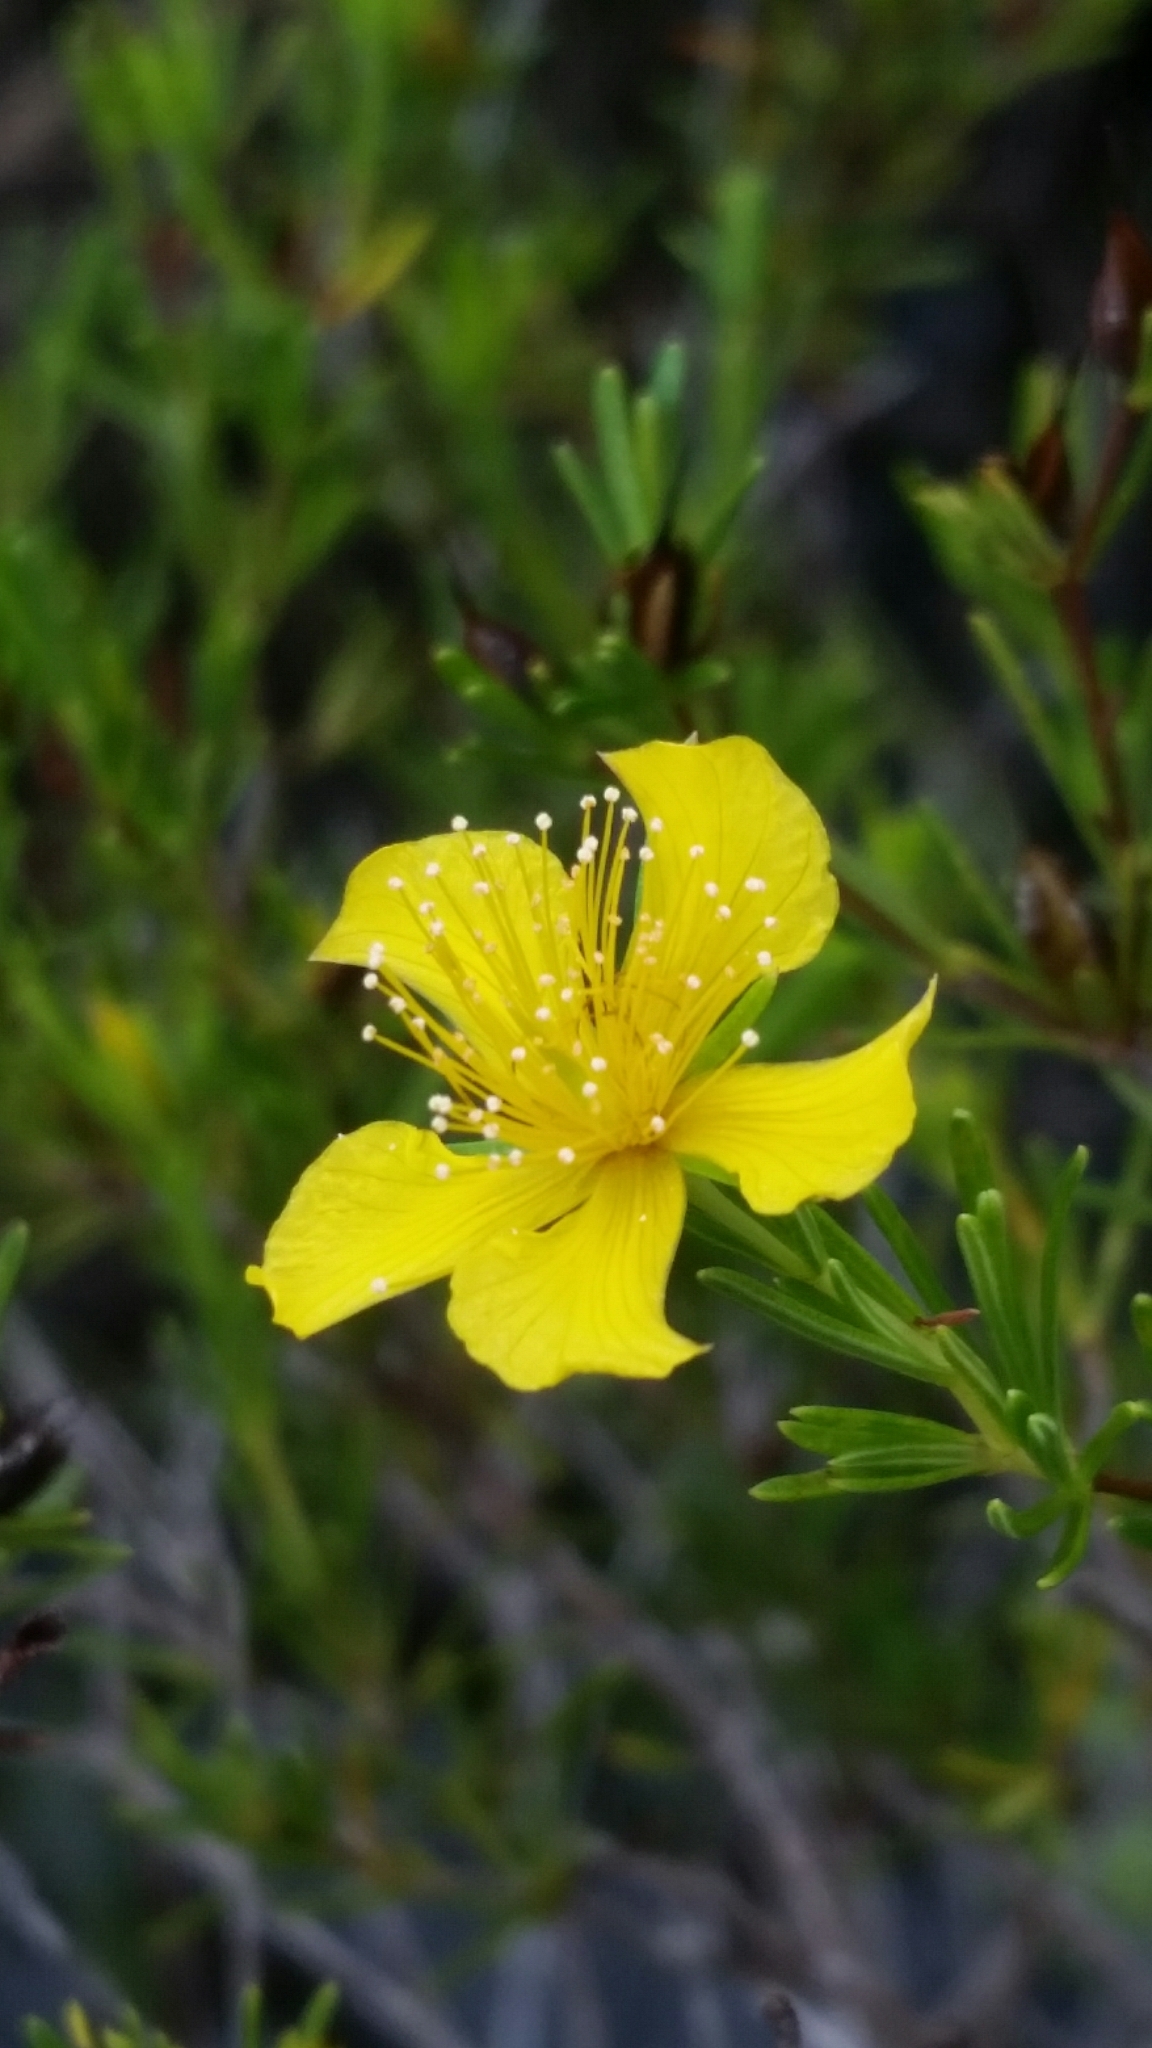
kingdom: Plantae
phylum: Tracheophyta
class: Magnoliopsida
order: Malpighiales
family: Hypericaceae
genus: Hypericum
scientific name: Hypericum fasciculatum
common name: Peelbark st. john's wort
